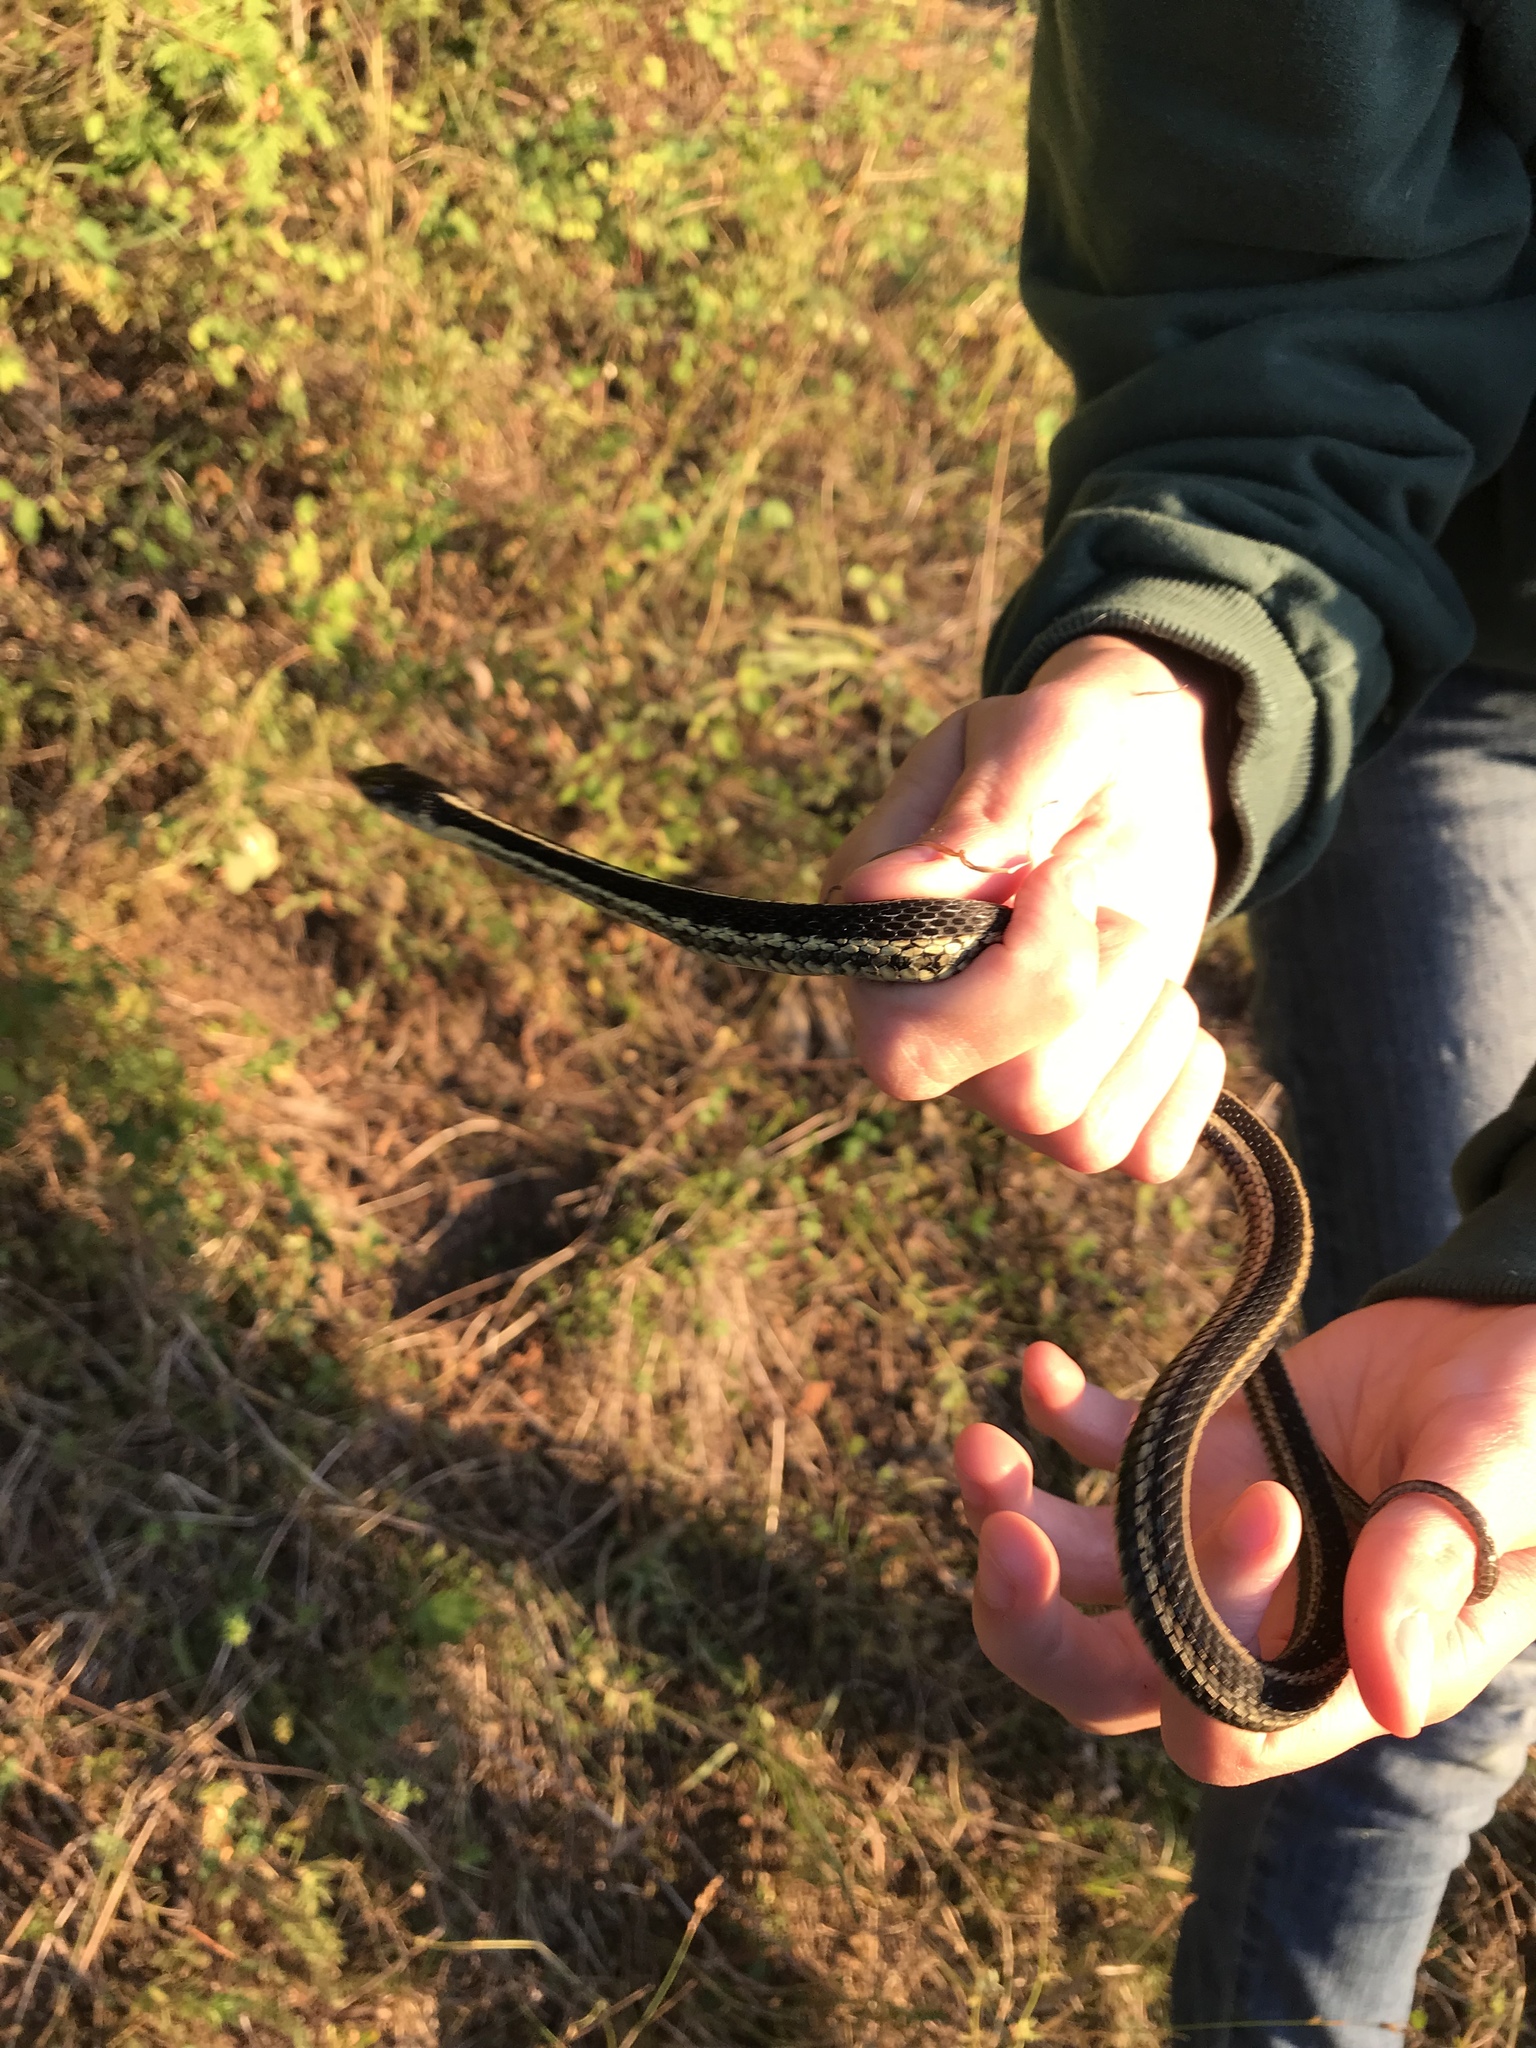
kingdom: Animalia
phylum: Chordata
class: Squamata
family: Colubridae
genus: Thamnophis
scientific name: Thamnophis sirtalis
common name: Common garter snake
